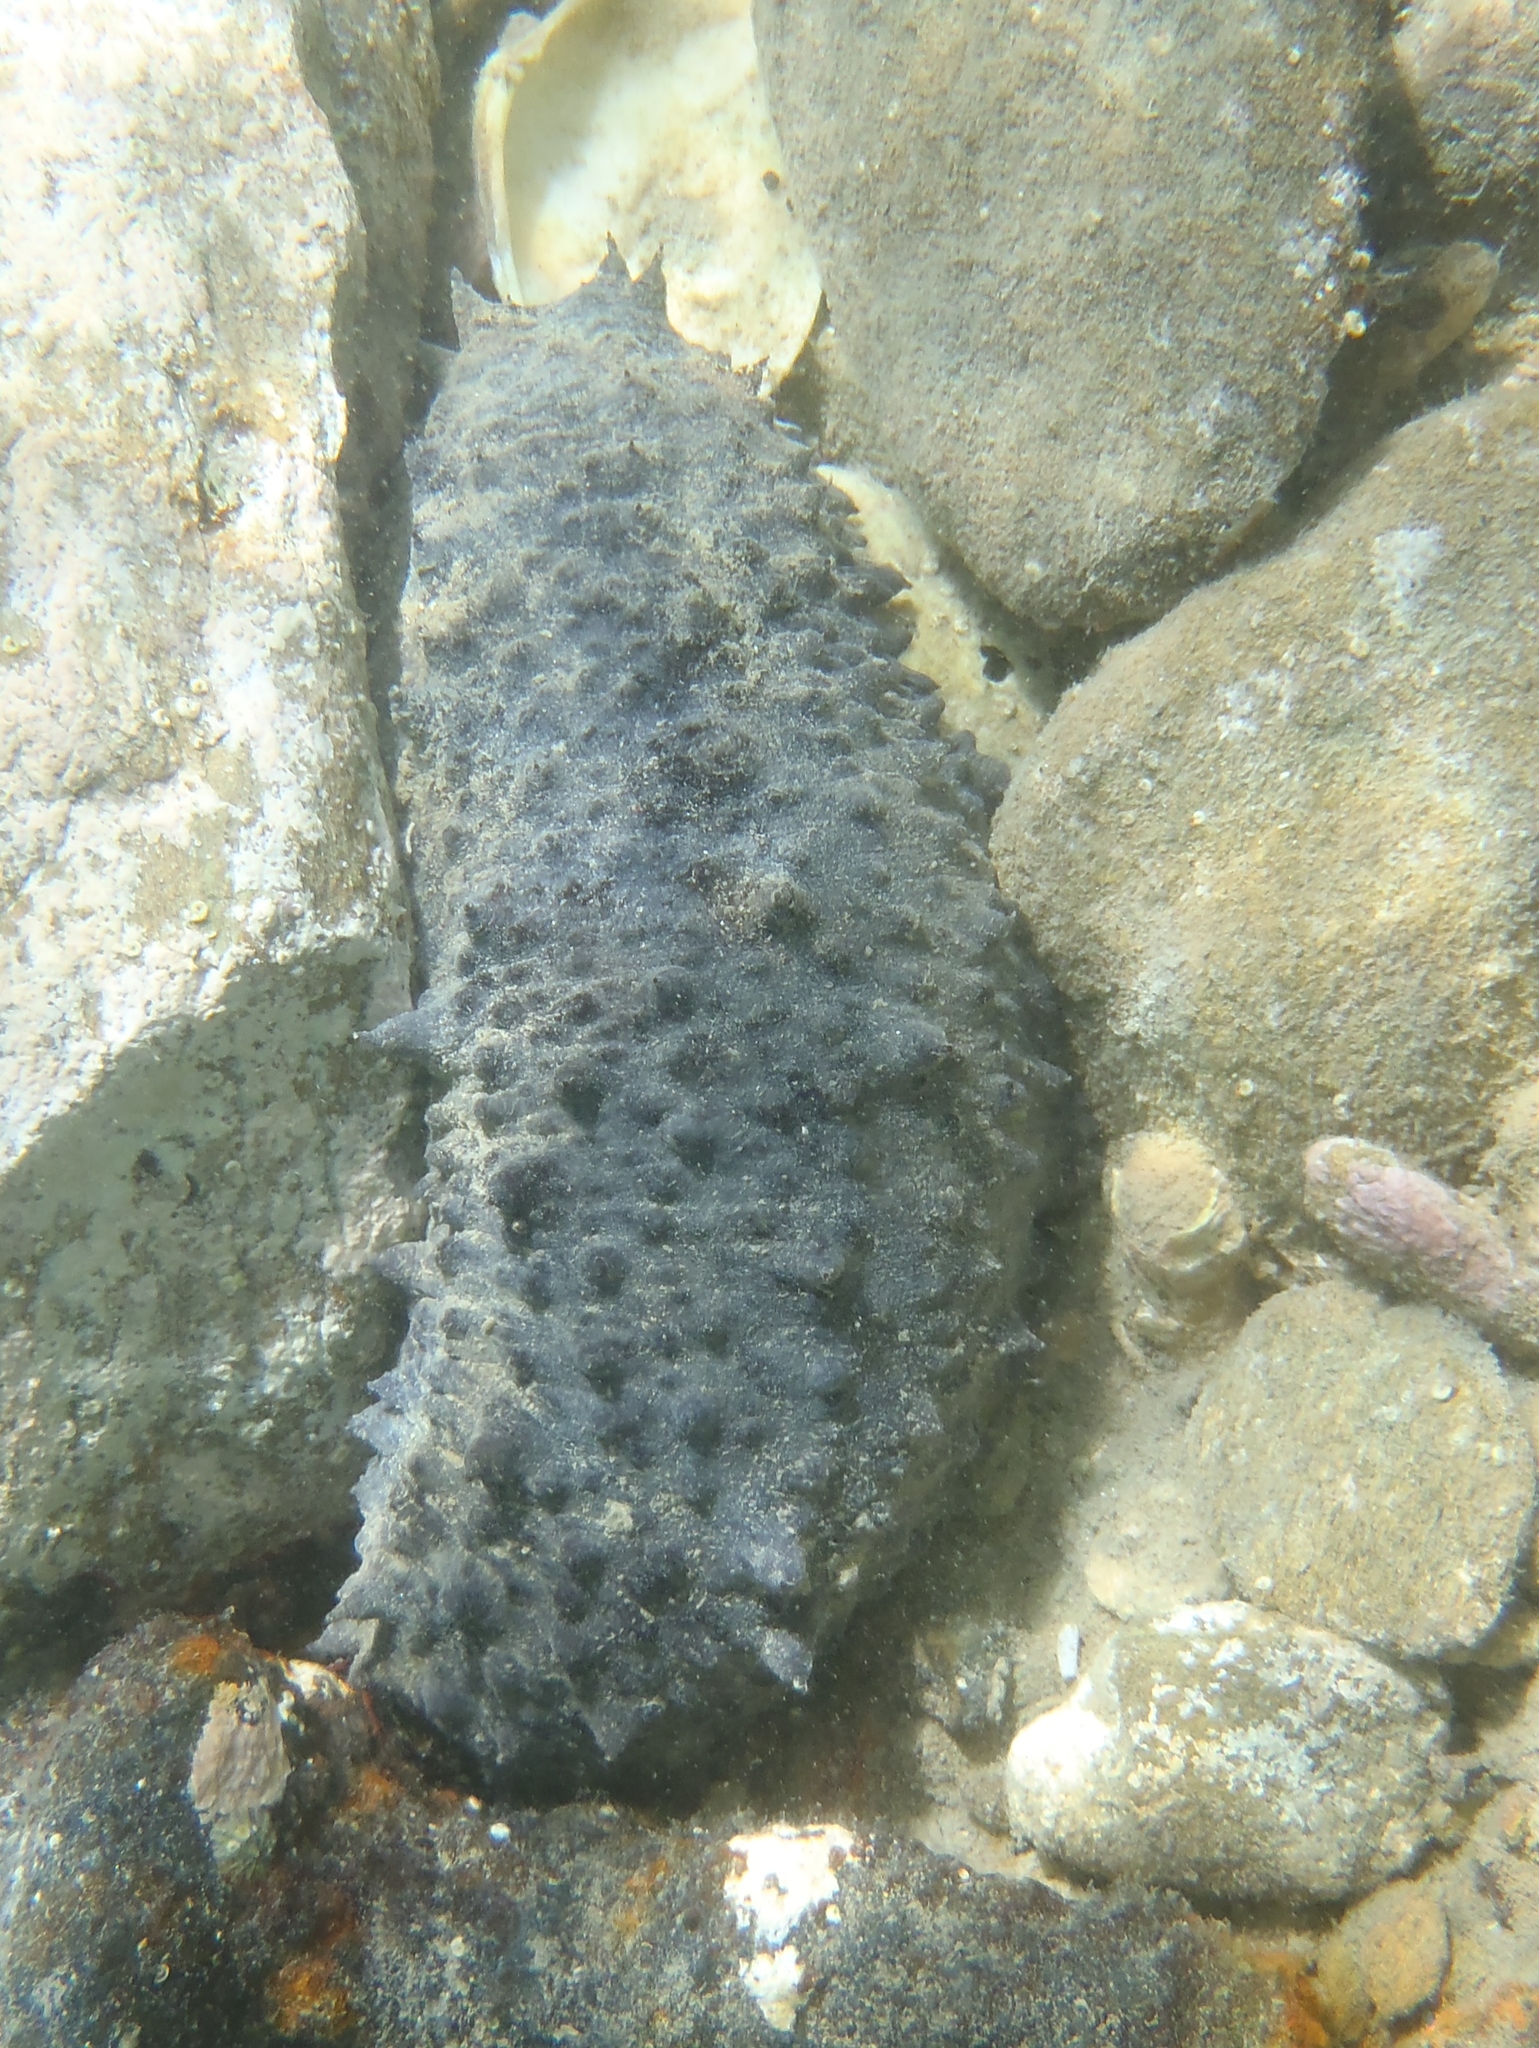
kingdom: Animalia
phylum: Echinodermata
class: Holothuroidea
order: Synallactida
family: Stichopodidae
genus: Australostichopus
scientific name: Australostichopus mollis
